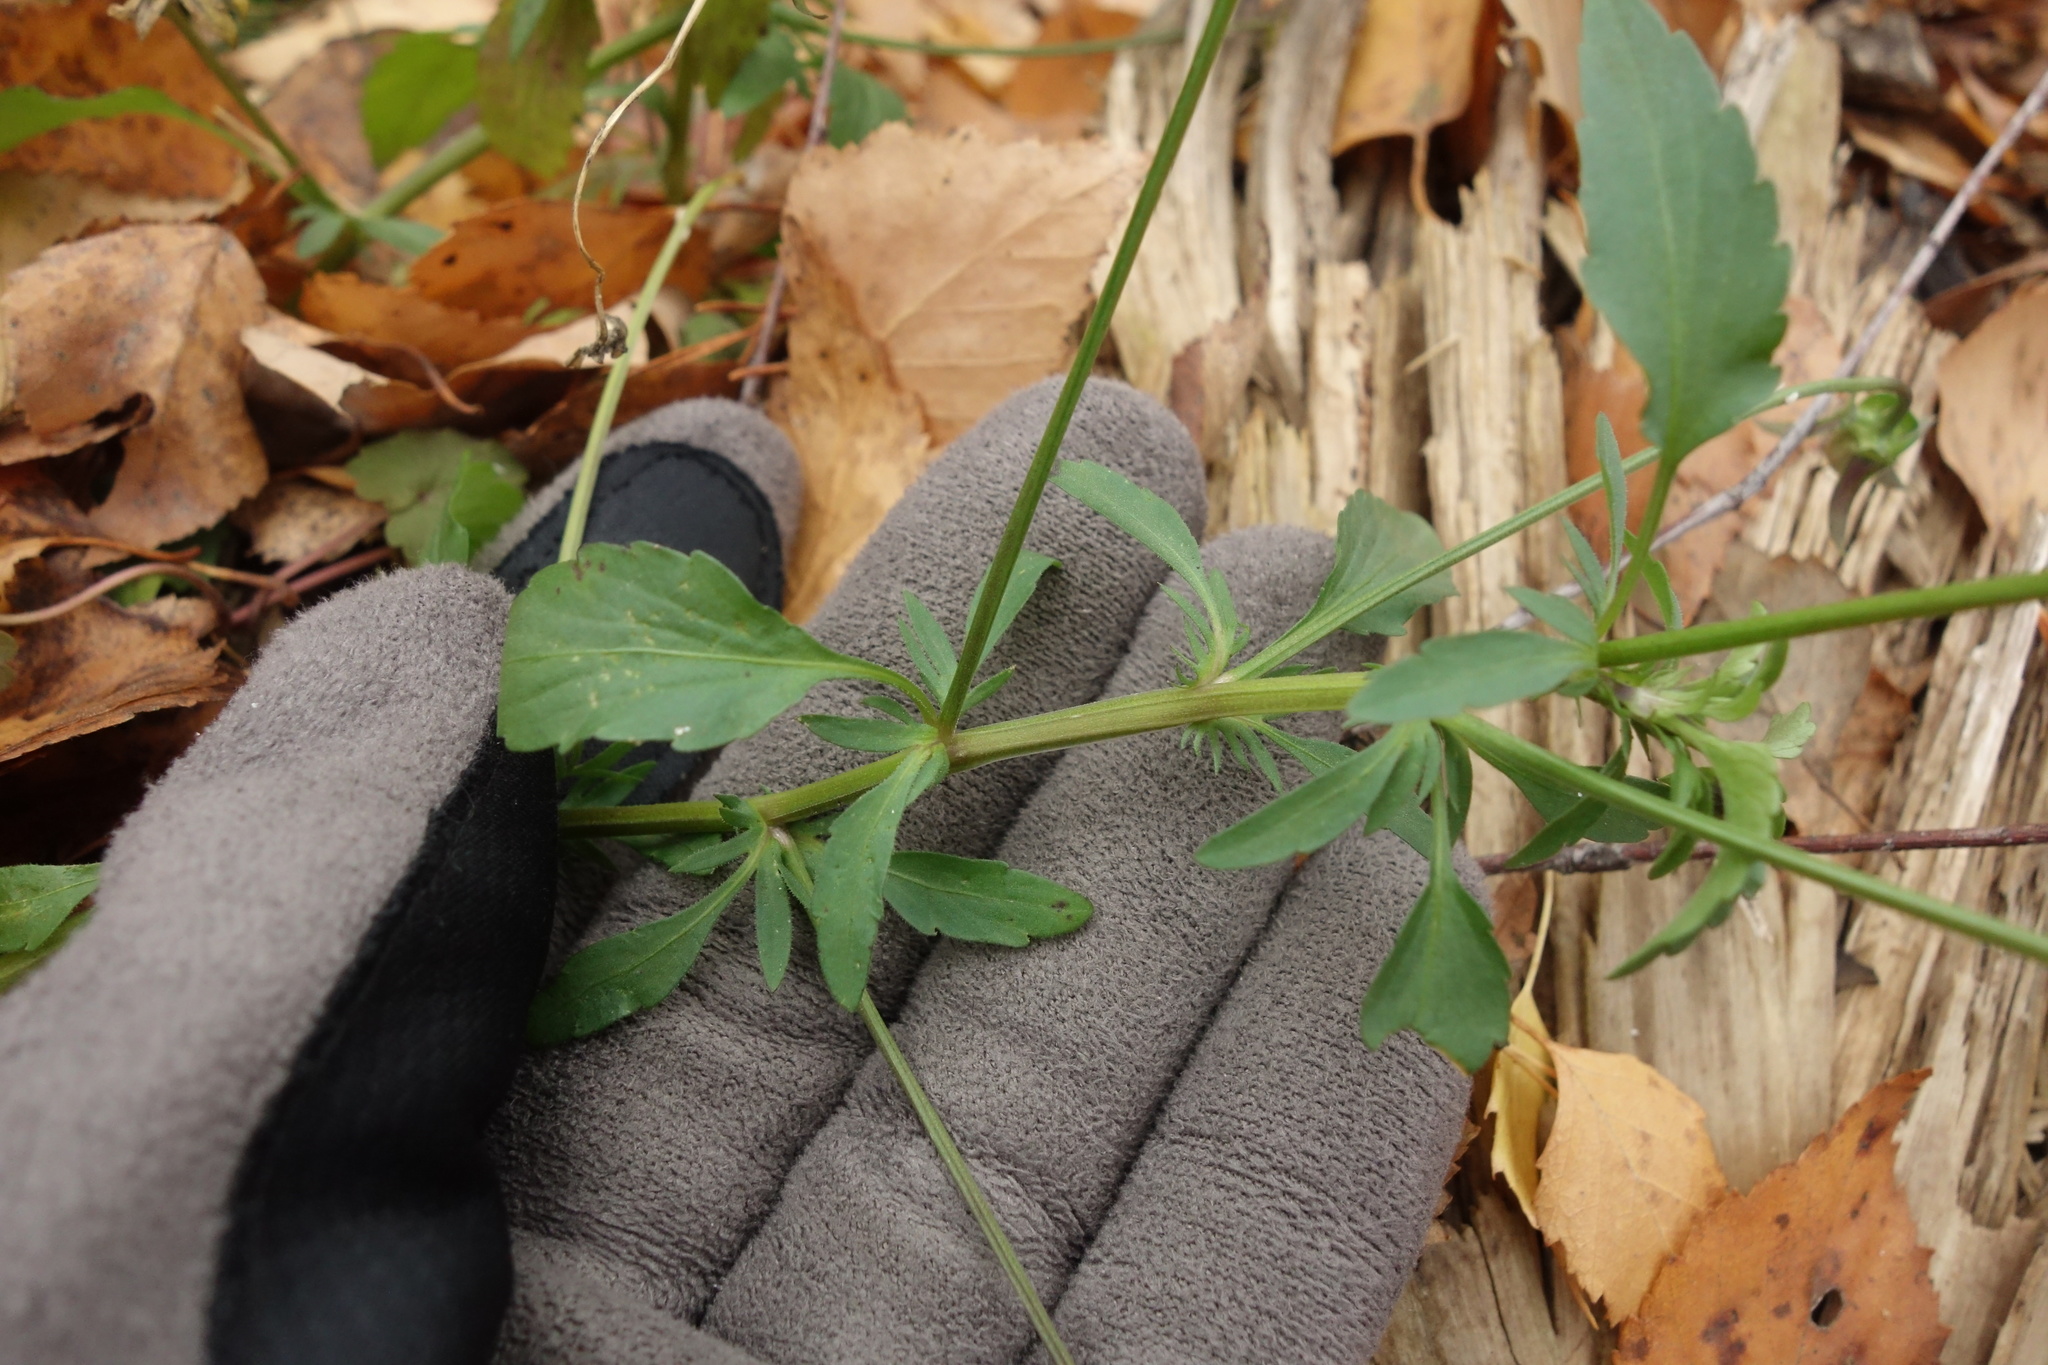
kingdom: Plantae
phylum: Tracheophyta
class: Magnoliopsida
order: Malpighiales
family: Violaceae
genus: Viola
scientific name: Viola tricolor
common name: Pansy
